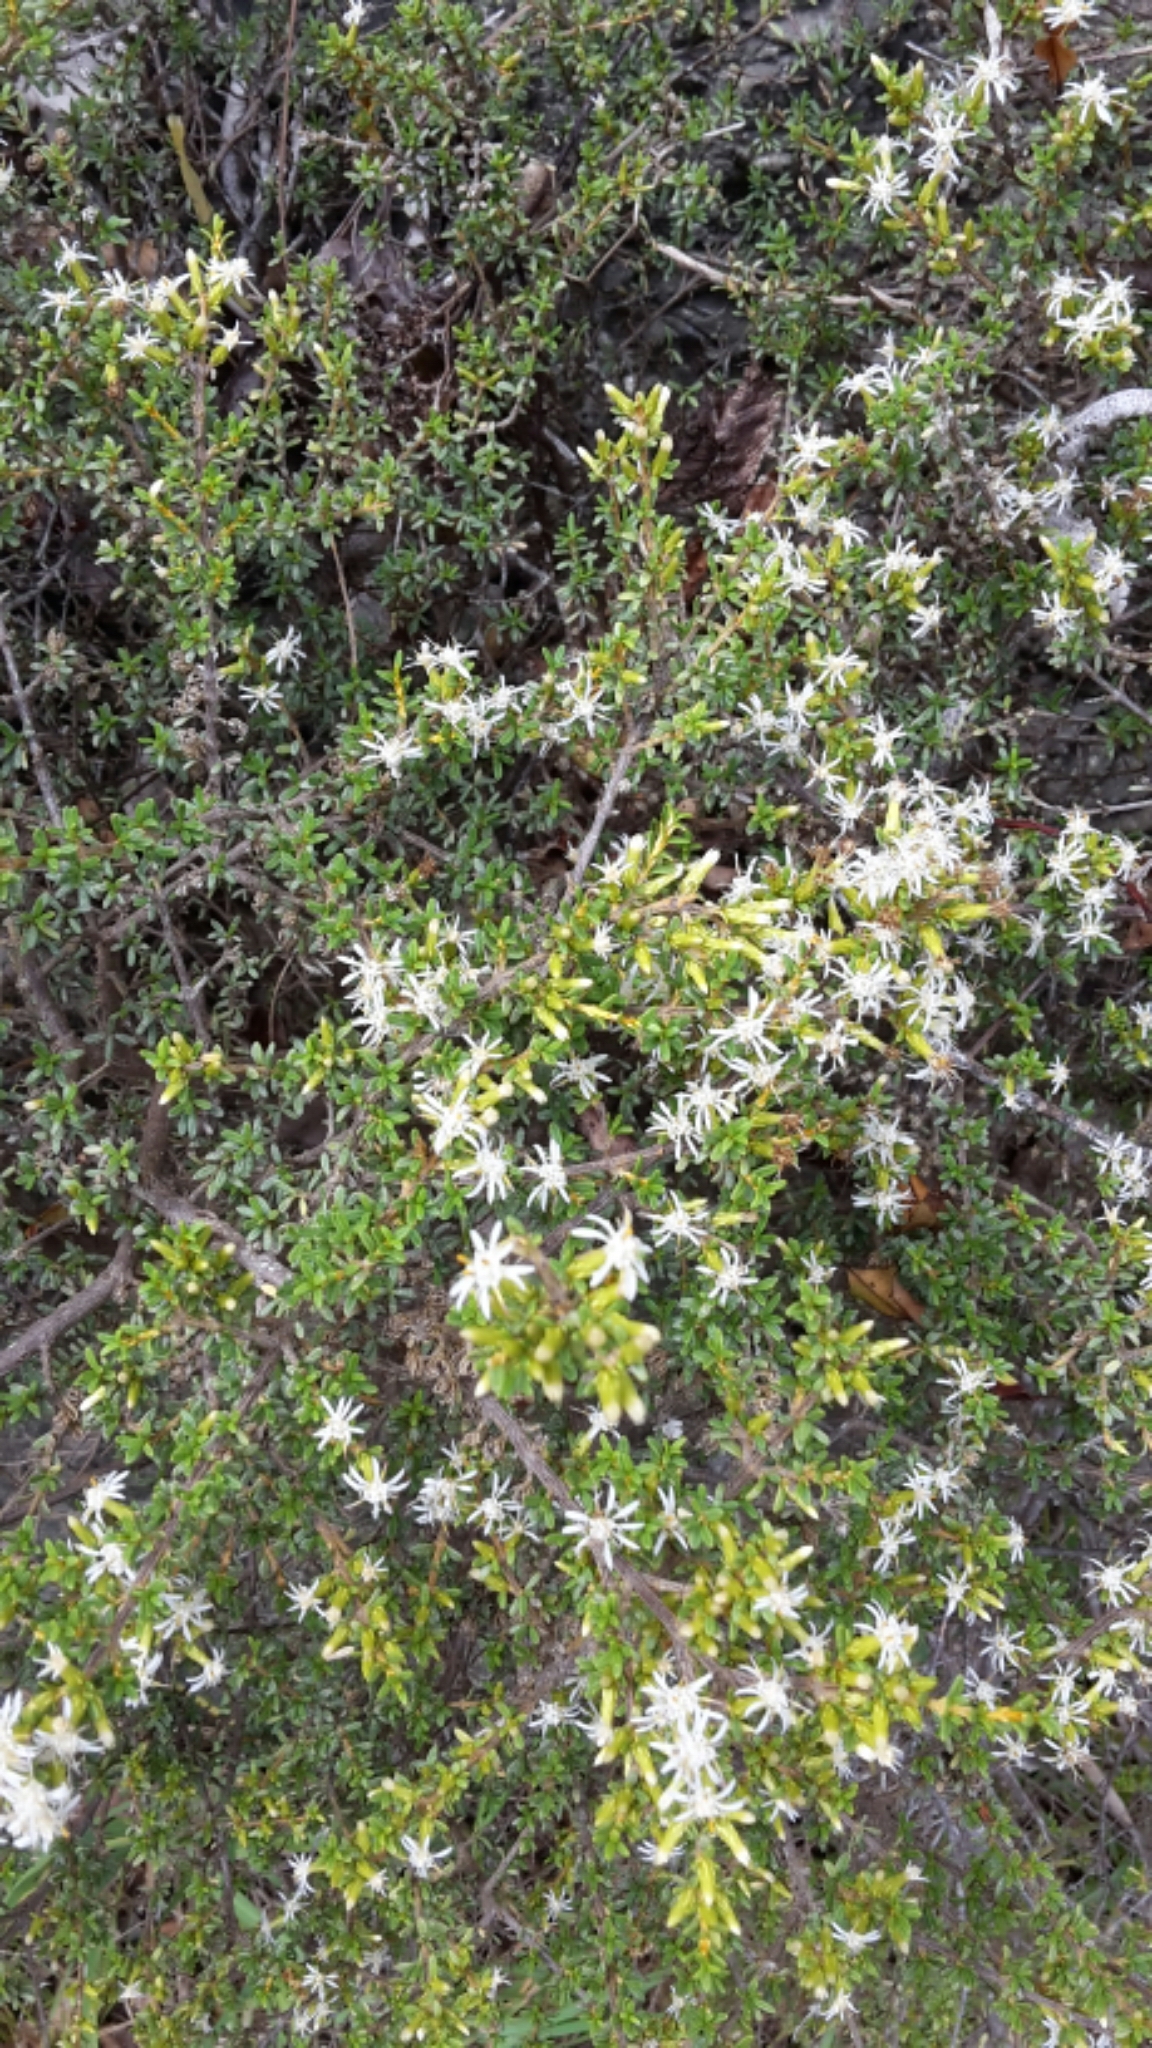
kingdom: Plantae
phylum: Tracheophyta
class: Magnoliopsida
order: Asterales
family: Asteraceae
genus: Olearia
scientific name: Olearia solandri
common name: Coastal daisybush
